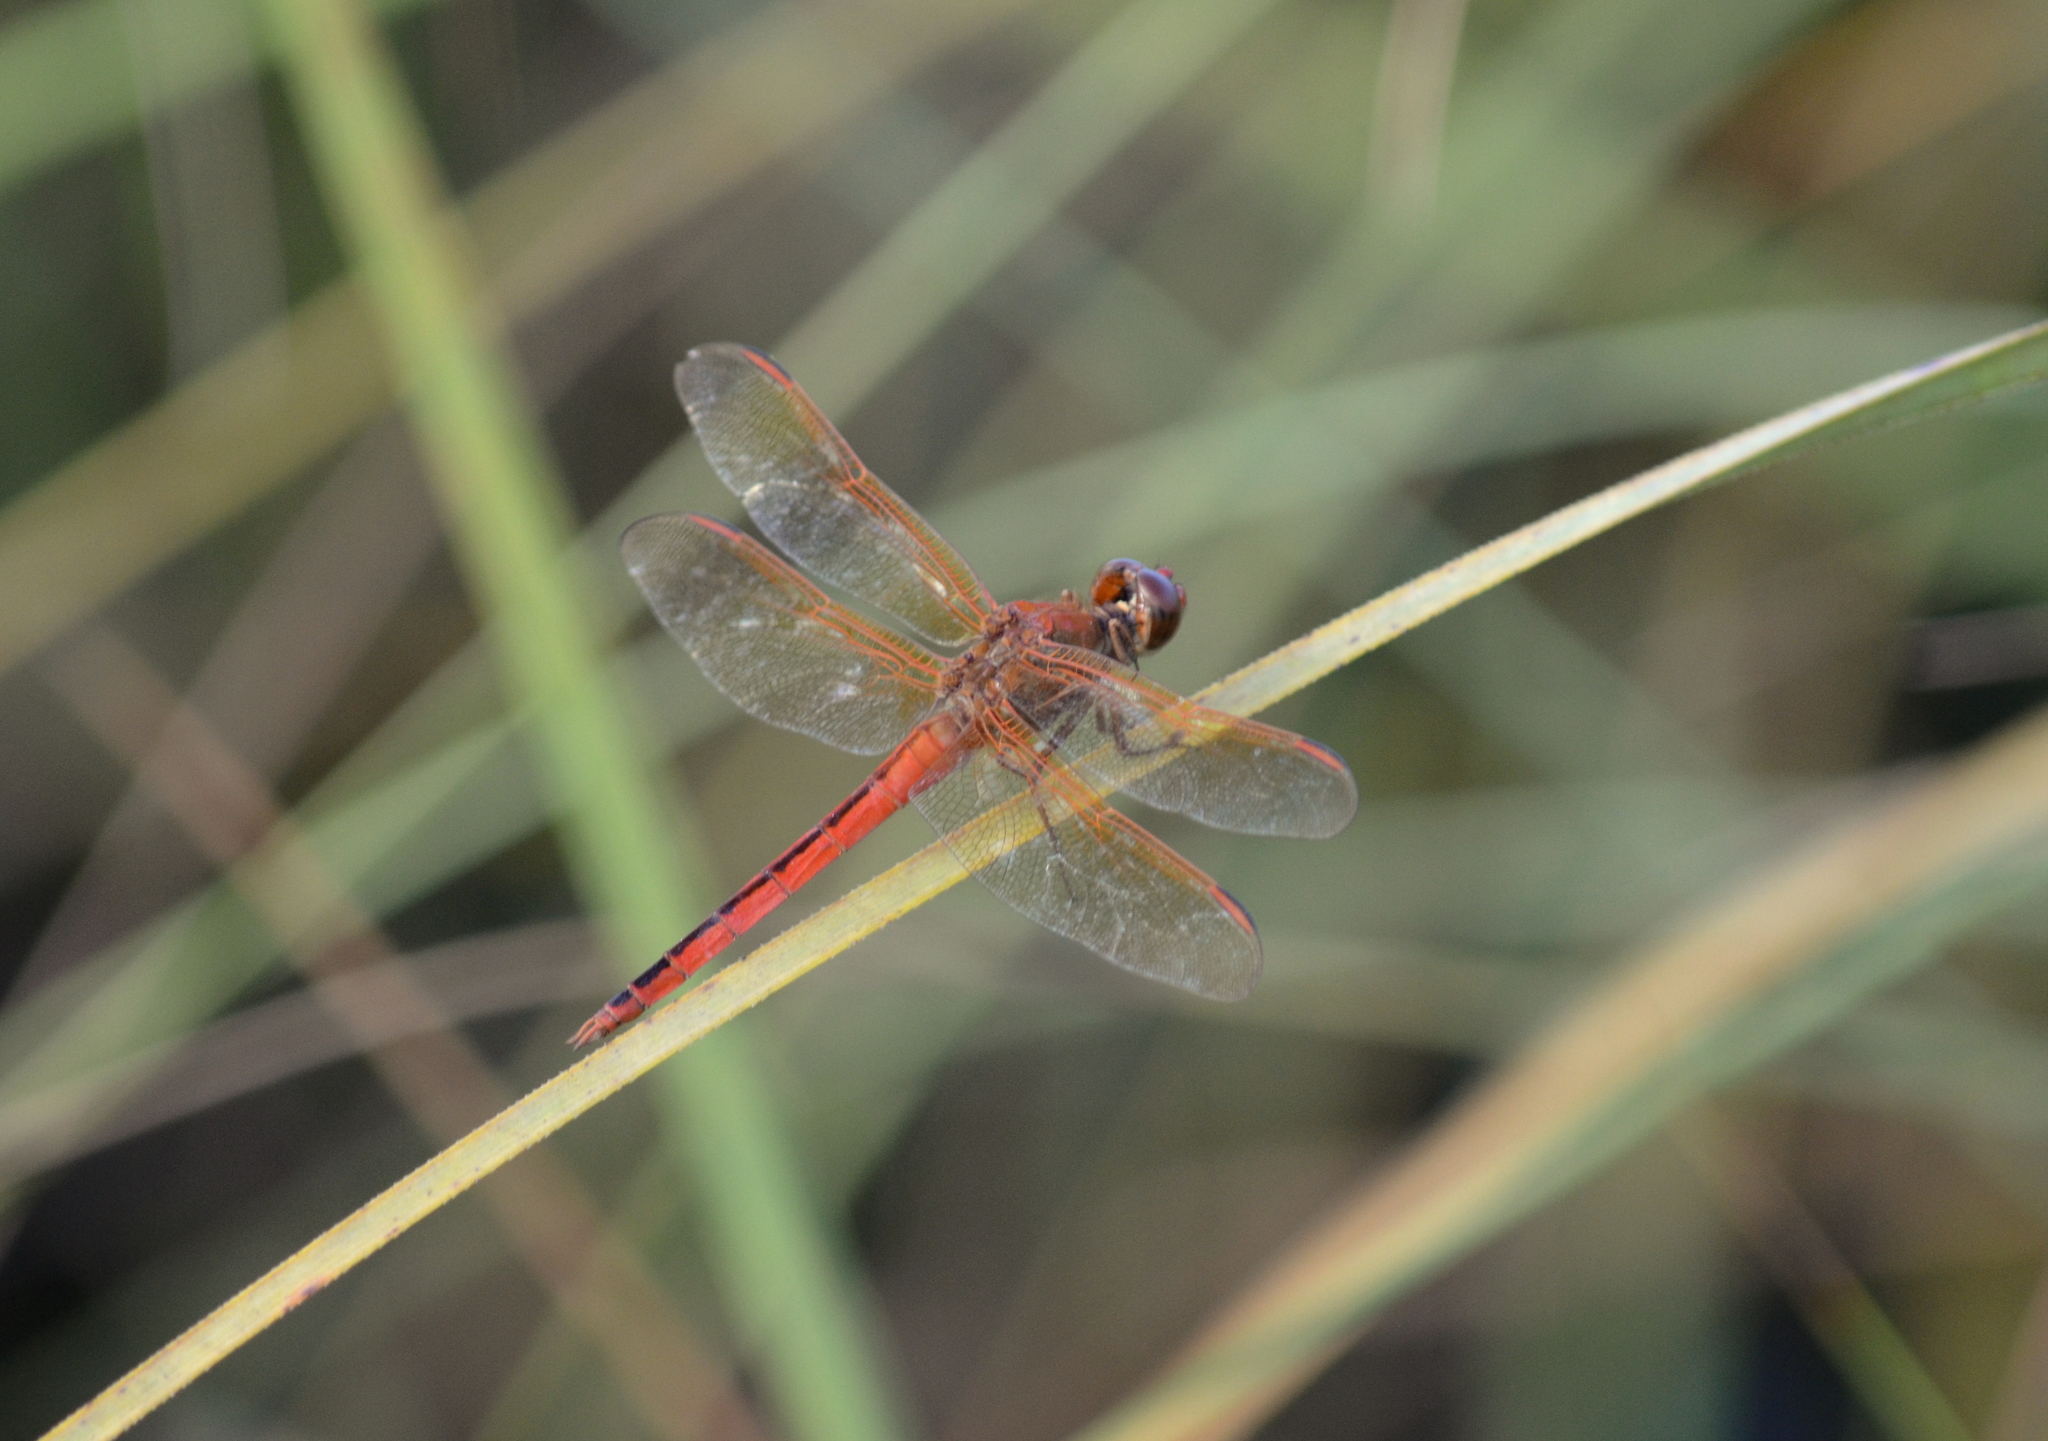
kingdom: Animalia
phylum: Arthropoda
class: Insecta
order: Odonata
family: Libellulidae
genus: Libellula
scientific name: Libellula needhami
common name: Needham's skimmer
